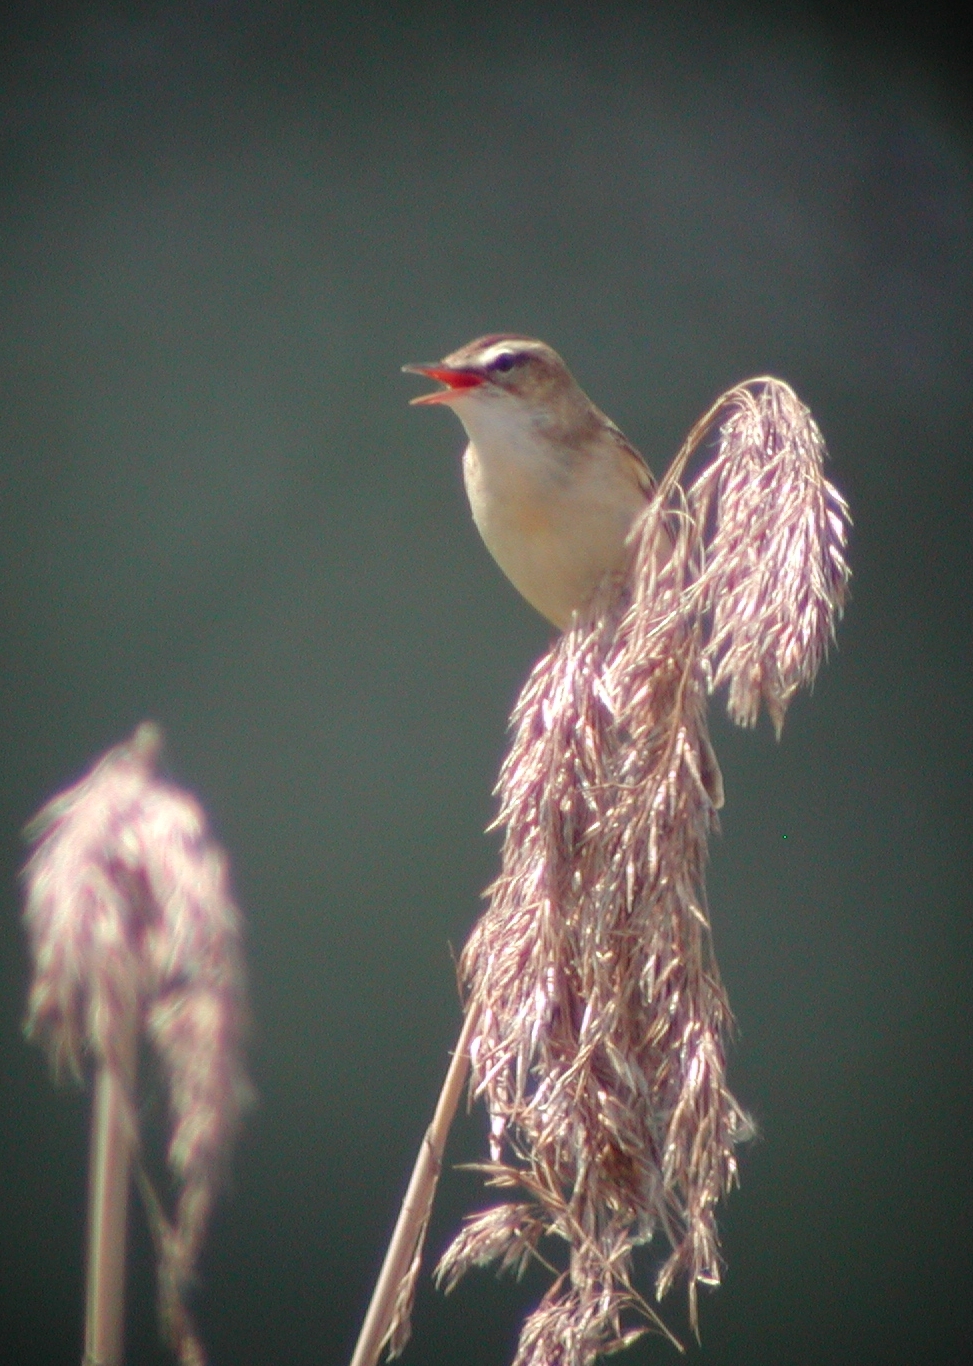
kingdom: Animalia
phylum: Chordata
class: Aves
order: Passeriformes
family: Acrocephalidae
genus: Acrocephalus
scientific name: Acrocephalus schoenobaenus
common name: Sedge warbler
